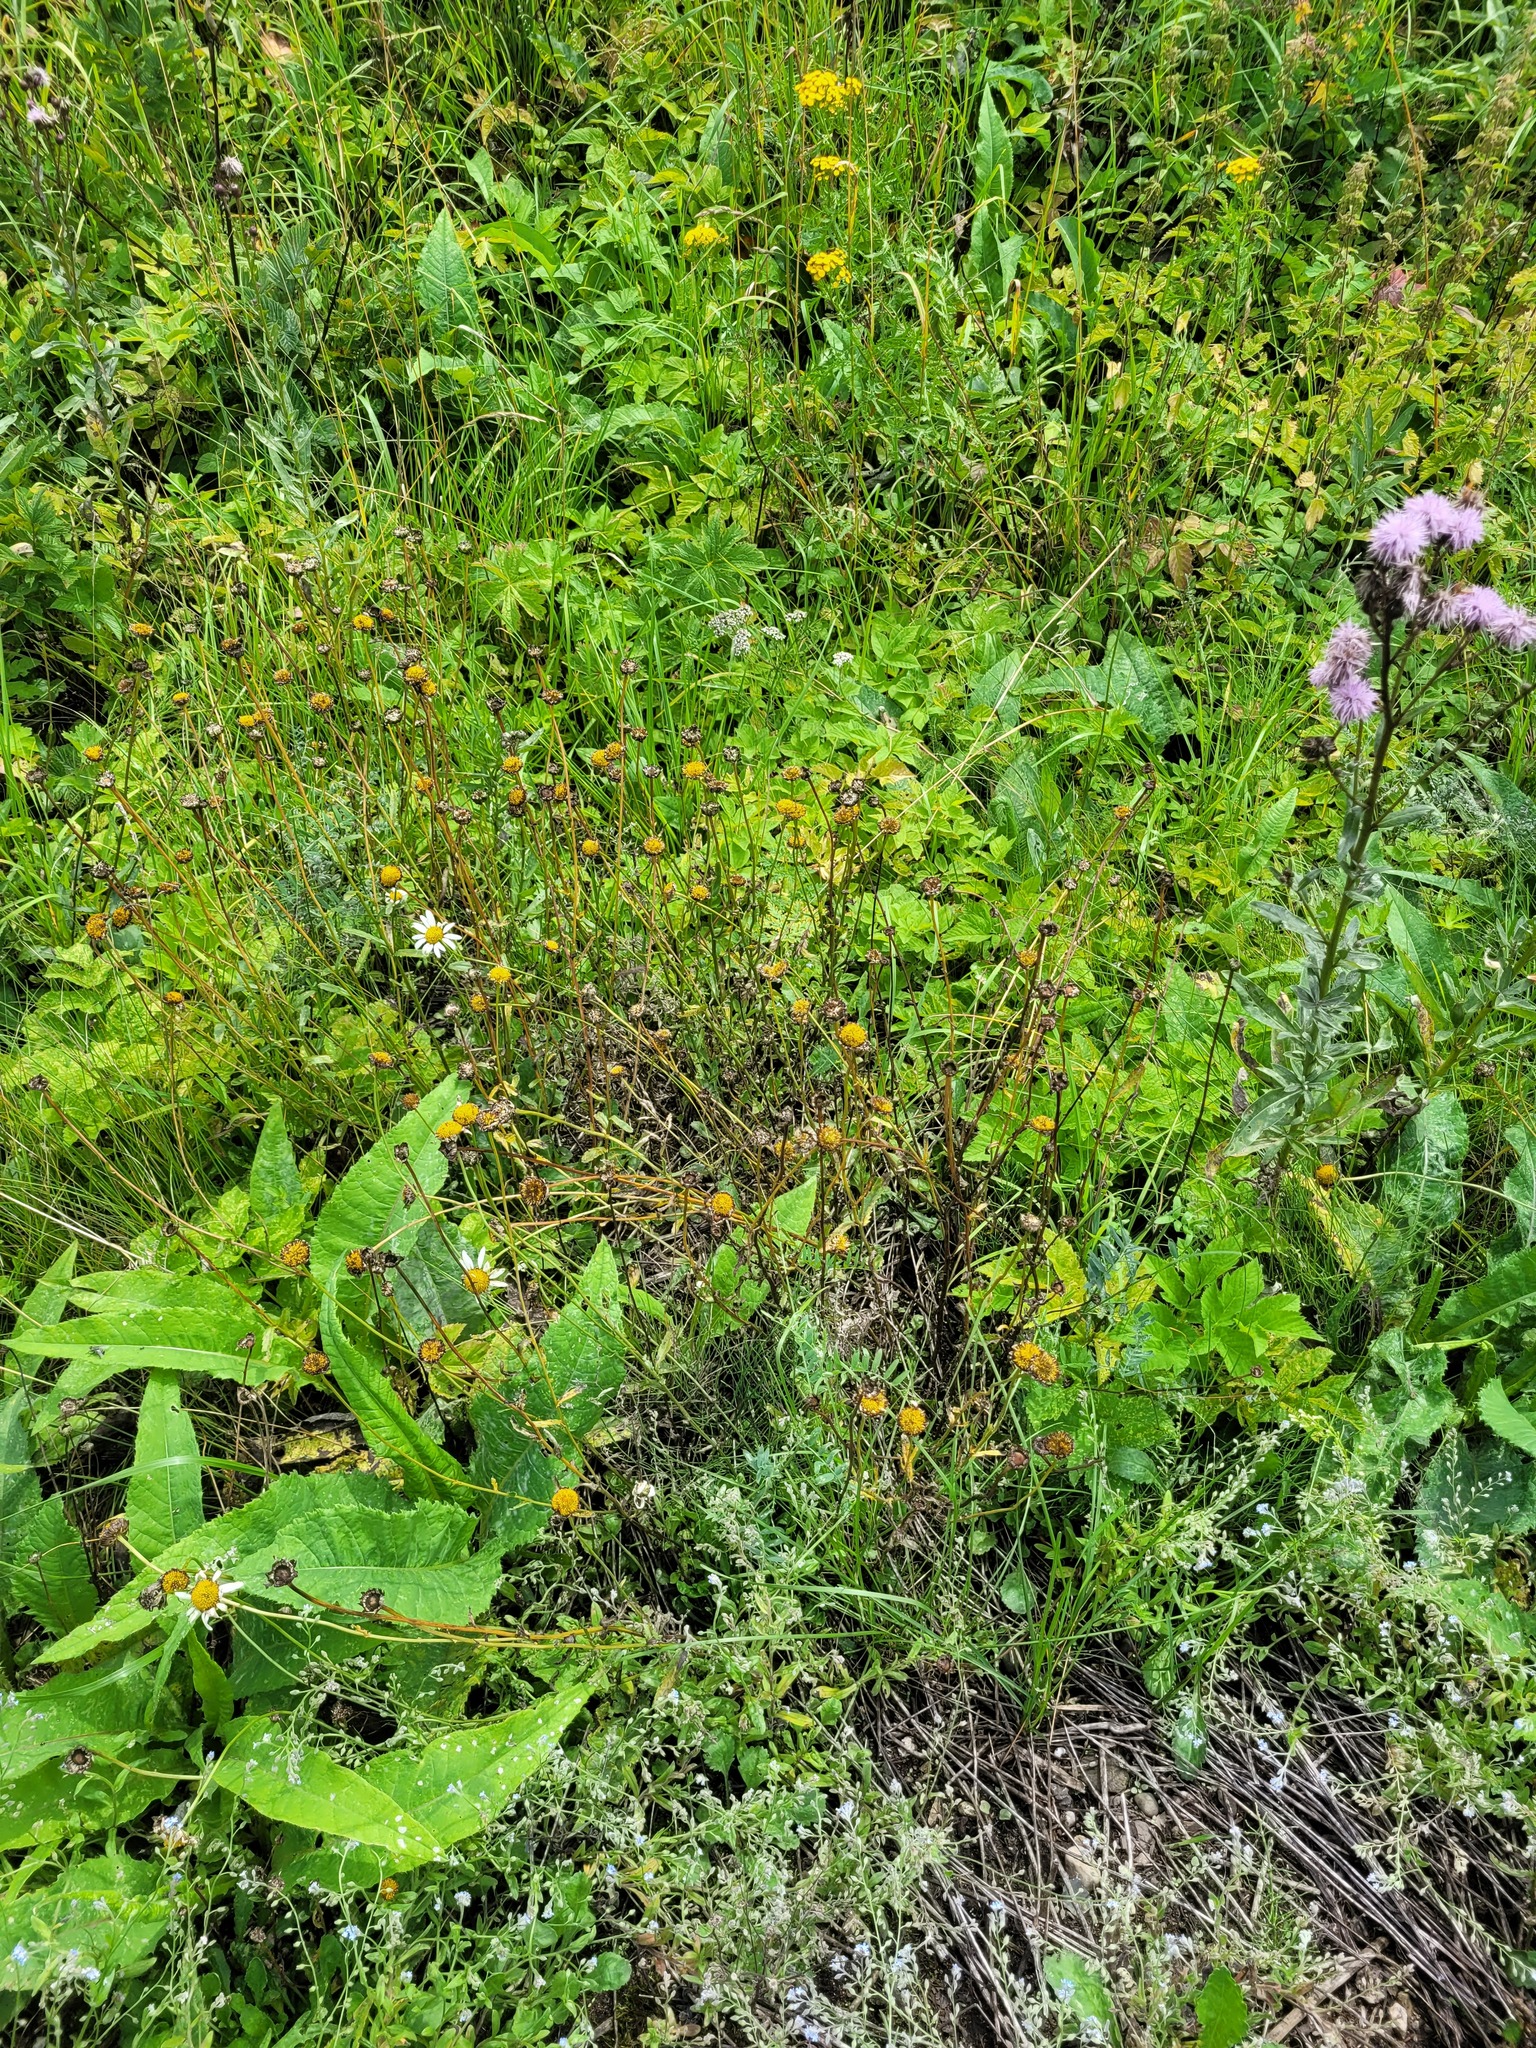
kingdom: Plantae
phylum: Tracheophyta
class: Magnoliopsida
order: Asterales
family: Asteraceae
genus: Leucanthemum
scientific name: Leucanthemum vulgare
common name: Oxeye daisy
